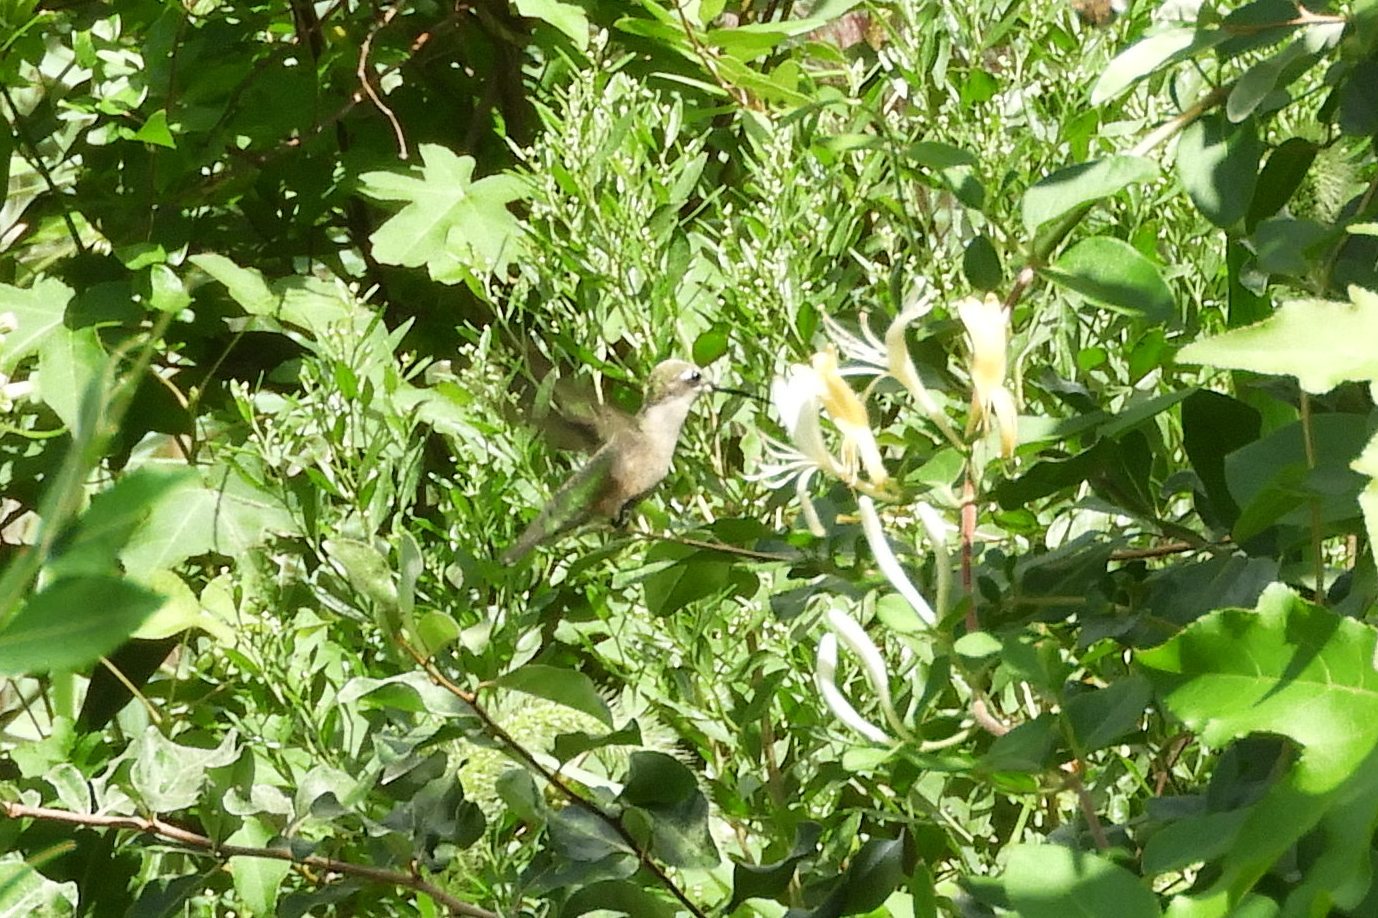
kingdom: Animalia
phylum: Chordata
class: Aves
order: Apodiformes
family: Trochilidae
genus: Archilochus
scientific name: Archilochus colubris
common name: Ruby-throated hummingbird
